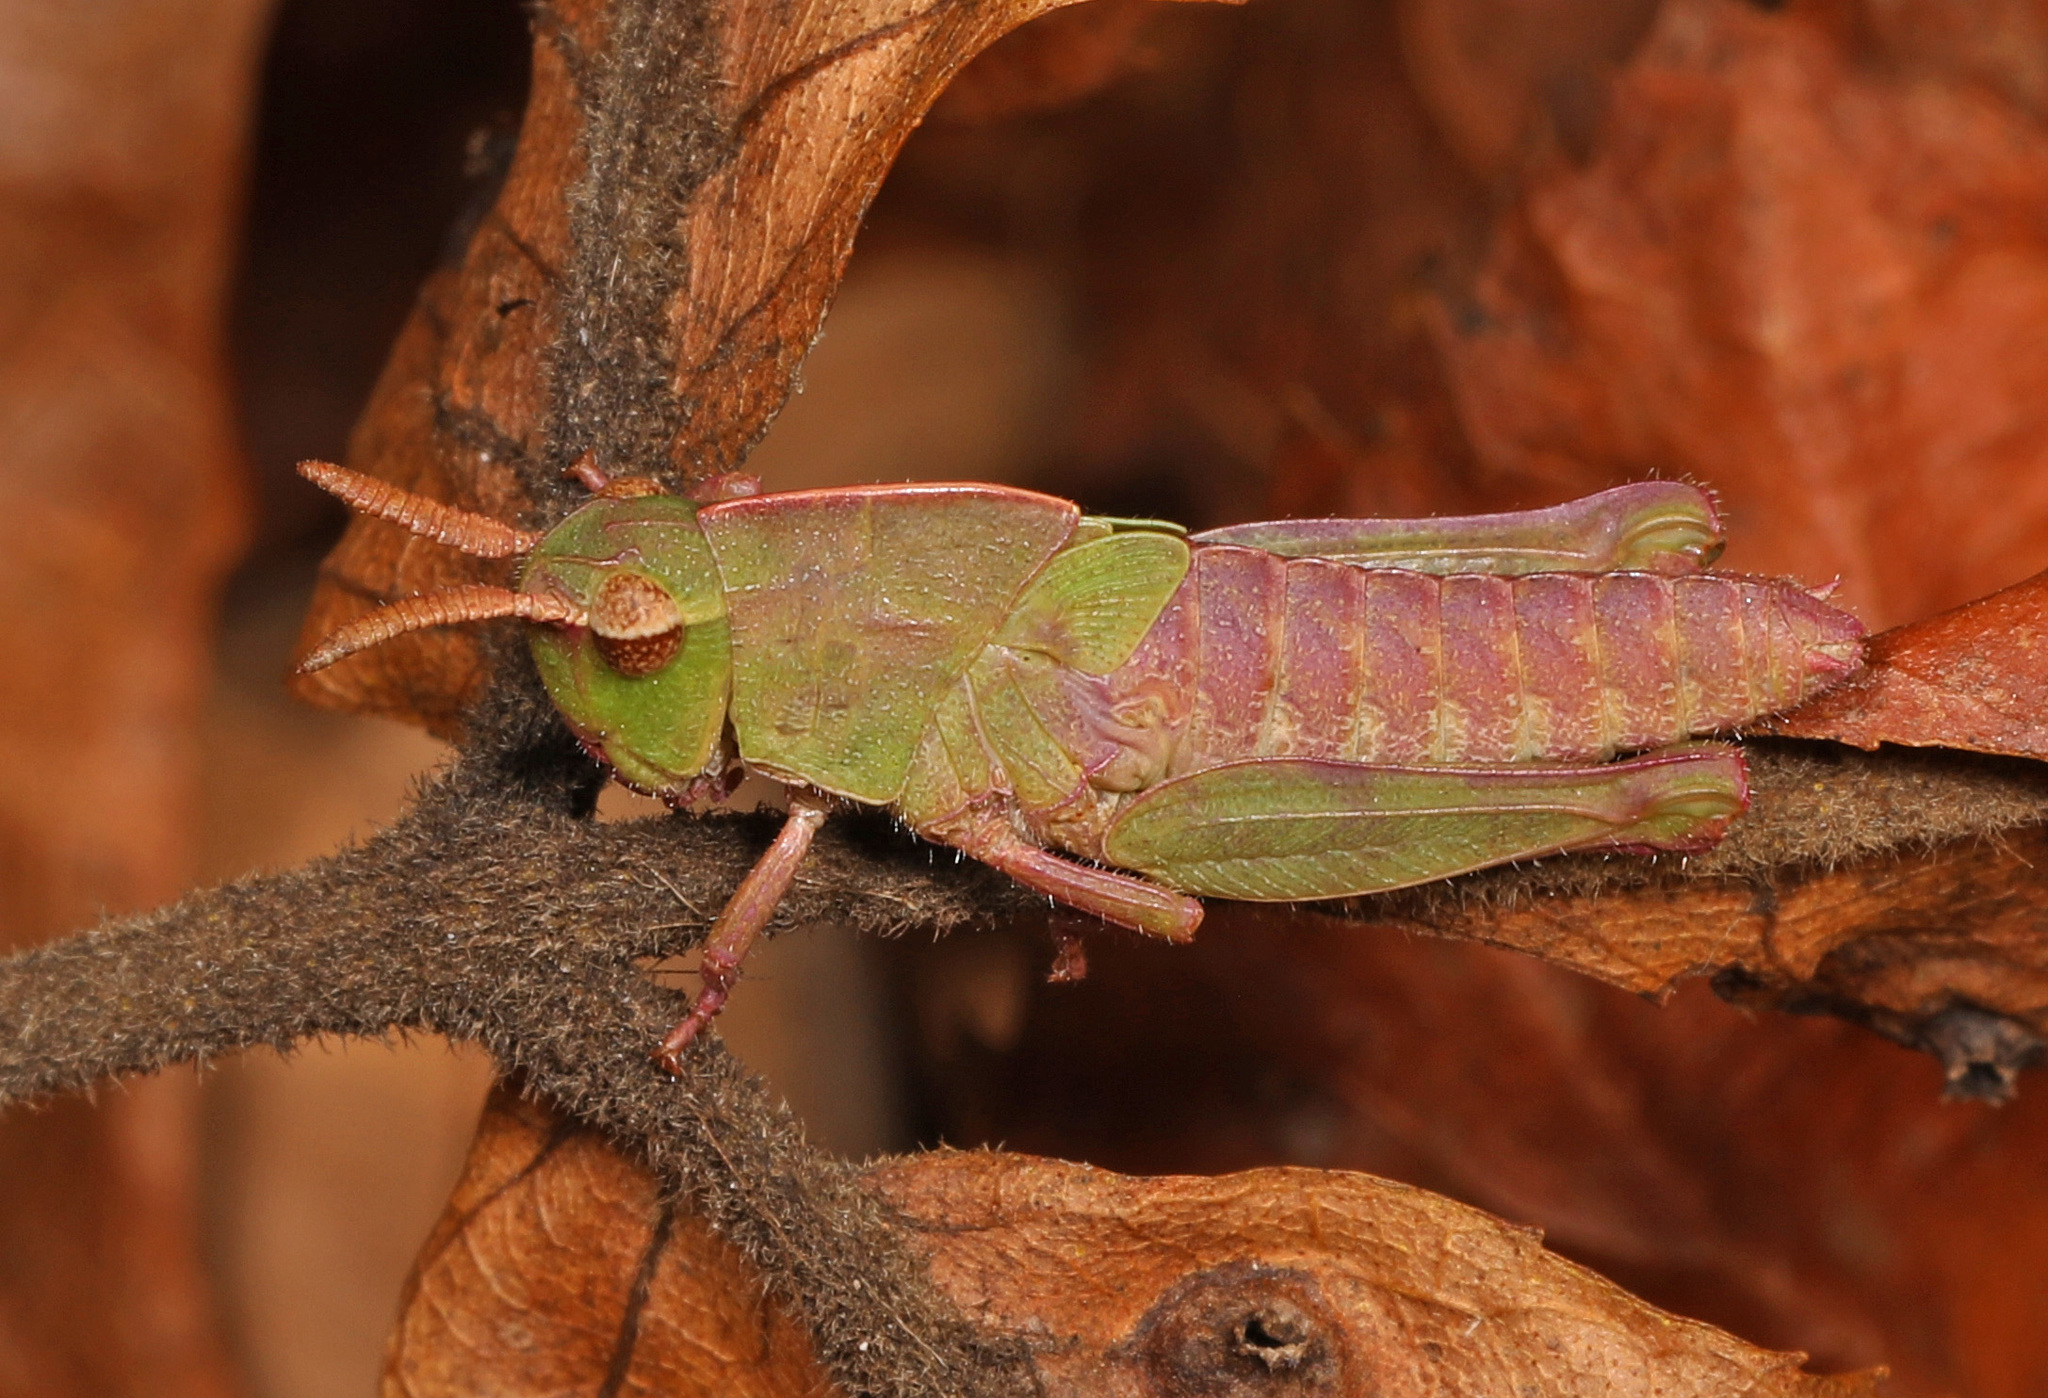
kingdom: Animalia
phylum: Arthropoda
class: Insecta
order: Orthoptera
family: Acrididae
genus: Chortophaga
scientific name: Chortophaga viridifasciata
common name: Green-striped grasshopper
